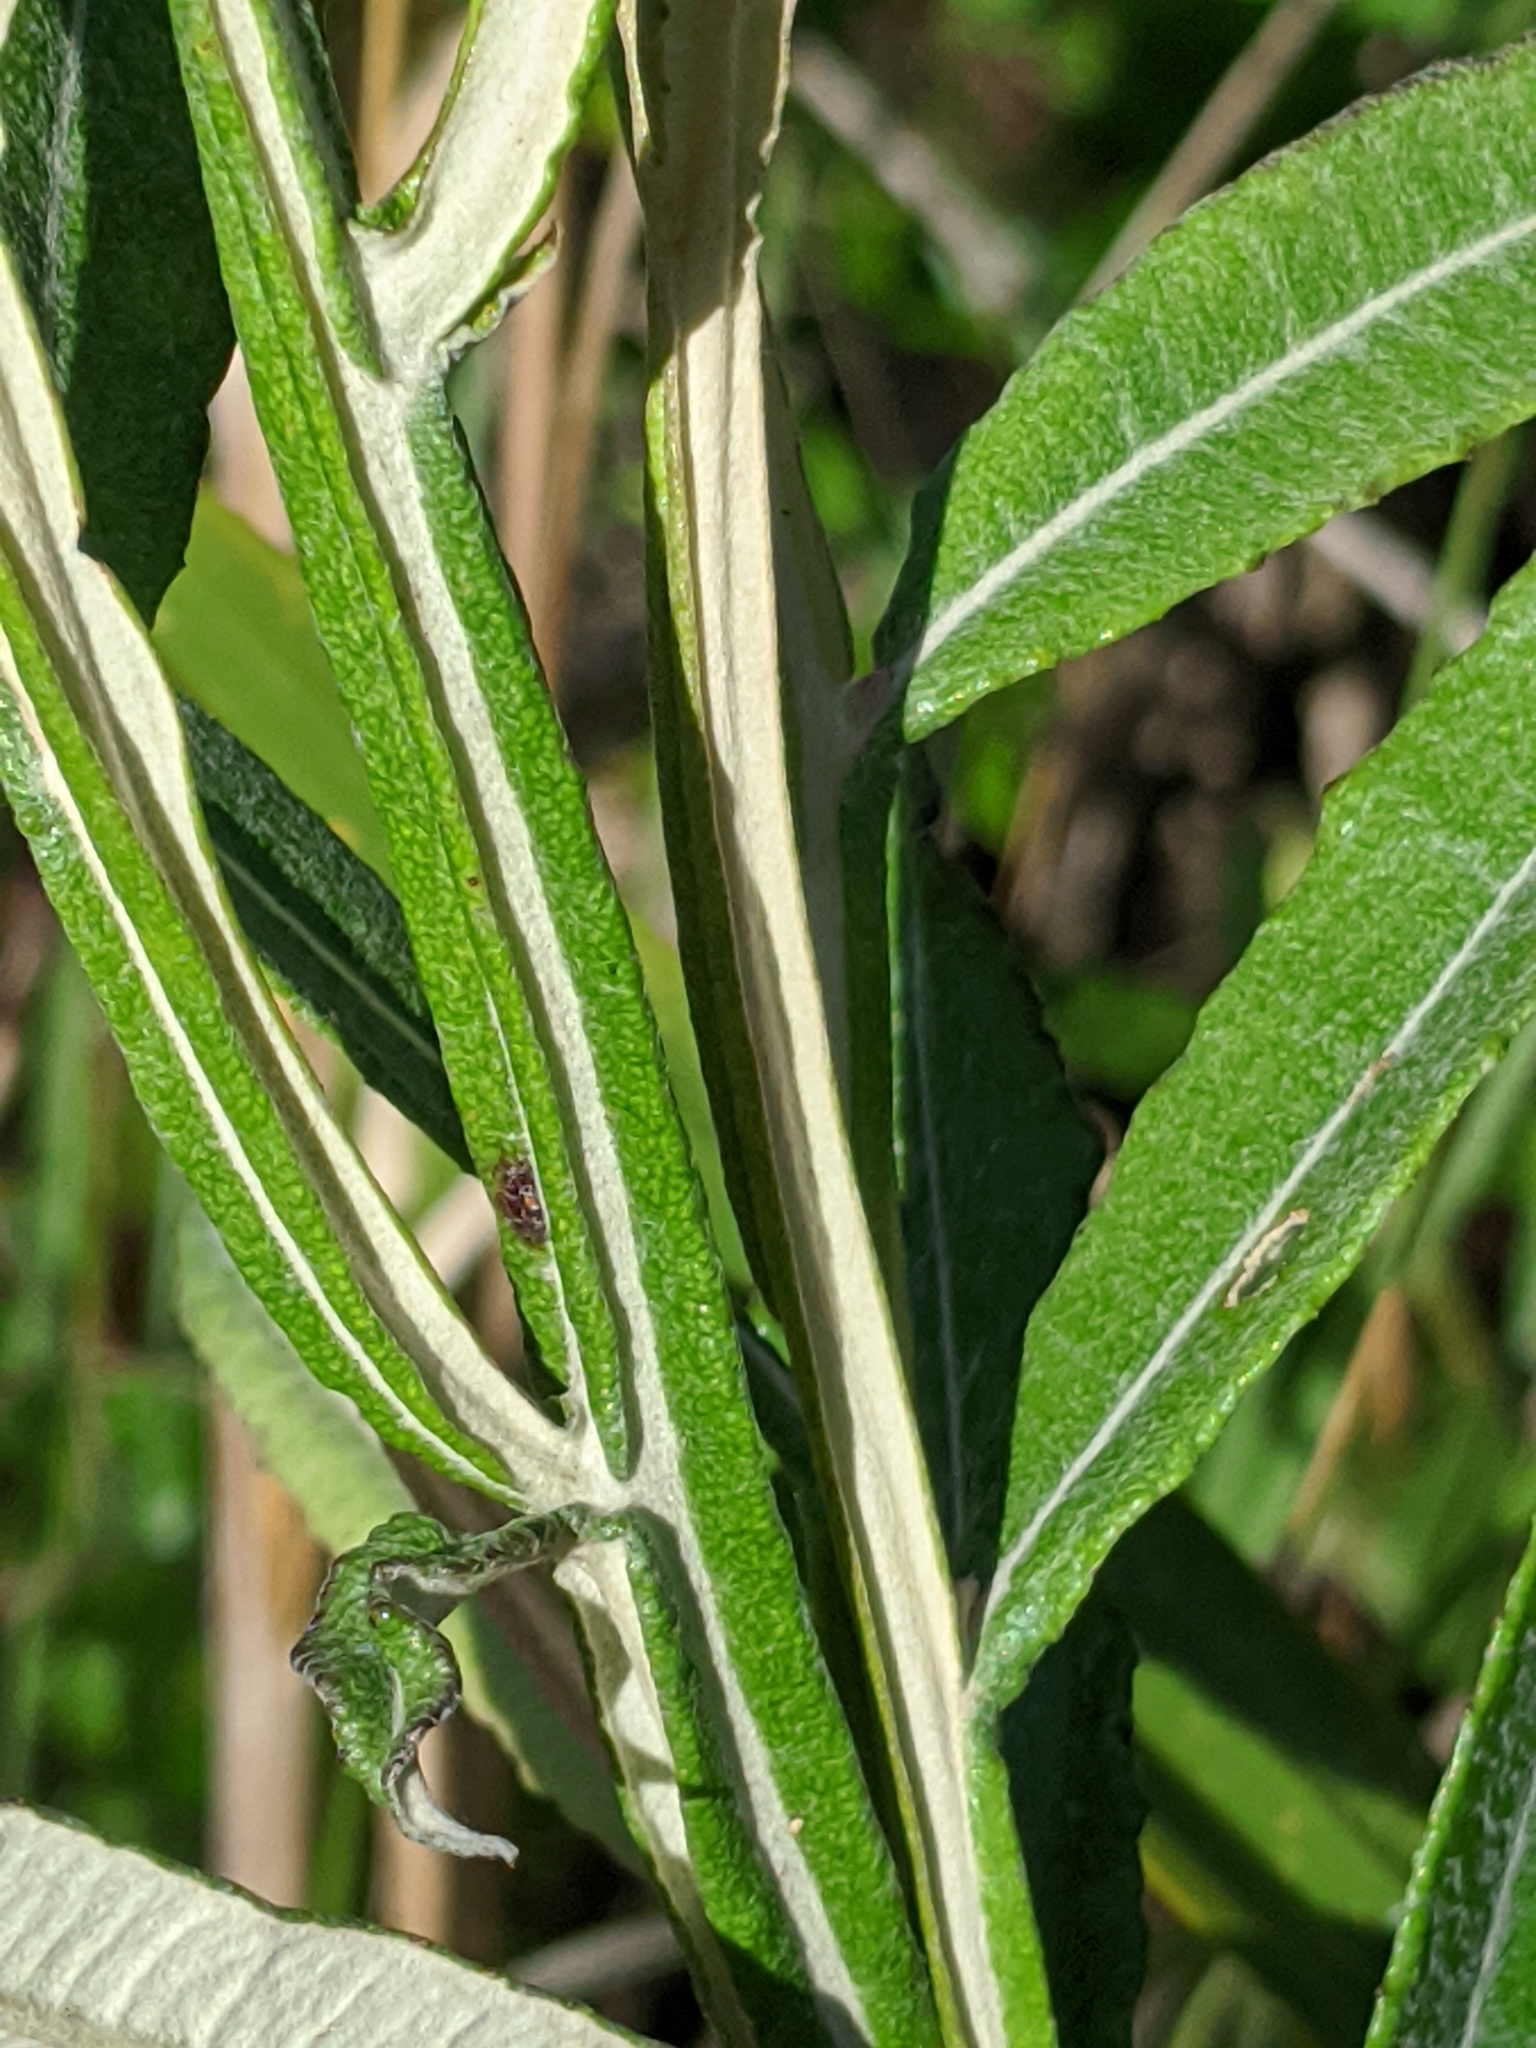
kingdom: Plantae
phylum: Tracheophyta
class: Magnoliopsida
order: Asterales
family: Asteraceae
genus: Pterocaulon
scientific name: Pterocaulon pycnostachyum
